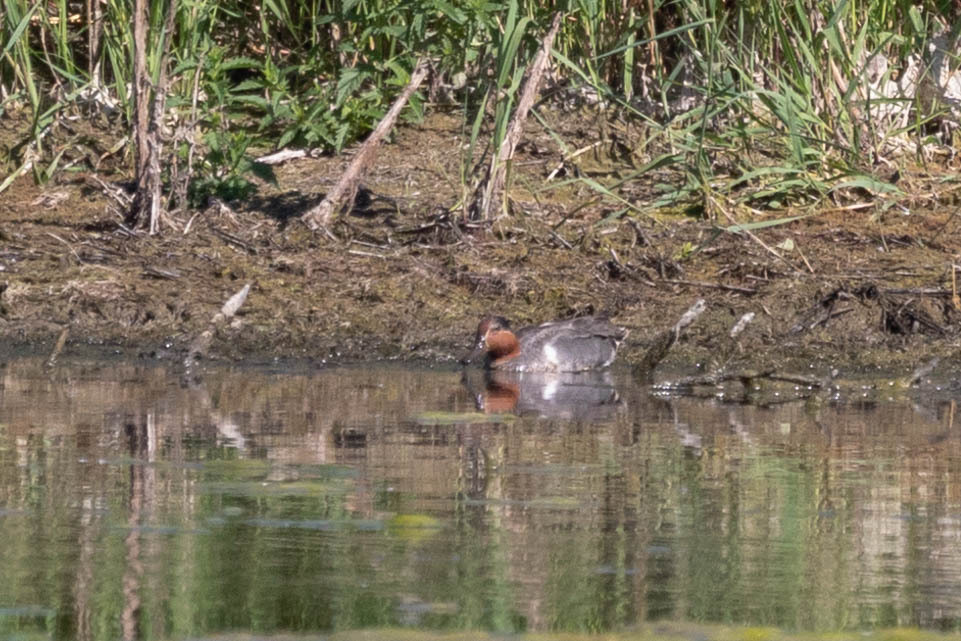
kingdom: Animalia
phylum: Chordata
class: Aves
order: Anseriformes
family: Anatidae
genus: Anas
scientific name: Anas carolinensis
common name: Green-winged teal
